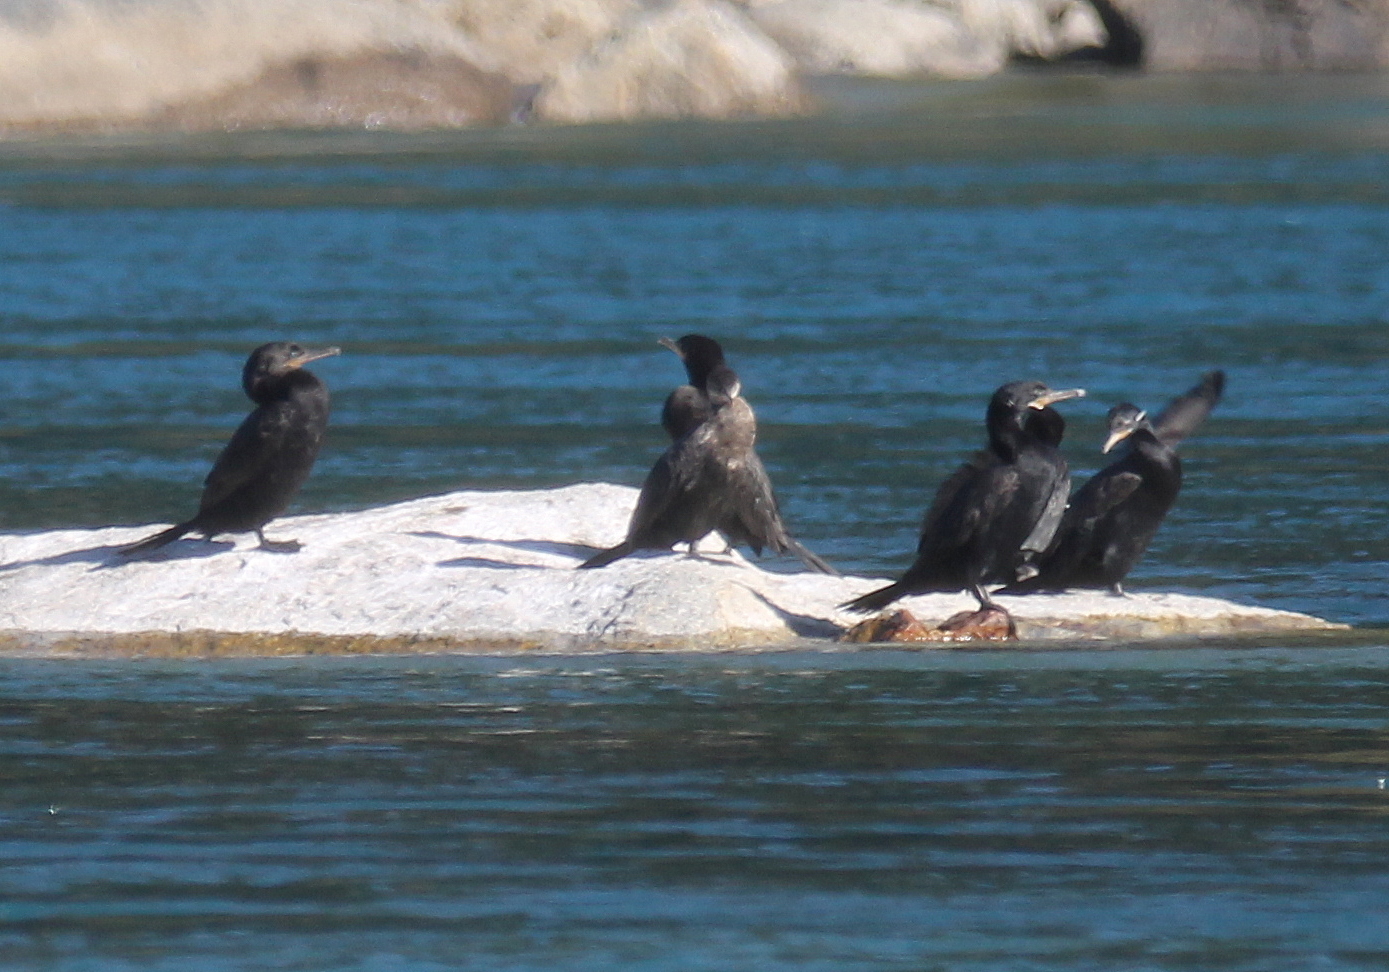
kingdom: Animalia
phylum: Chordata
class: Aves
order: Suliformes
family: Phalacrocoracidae
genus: Phalacrocorax
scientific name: Phalacrocorax brasilianus
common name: Neotropic cormorant
